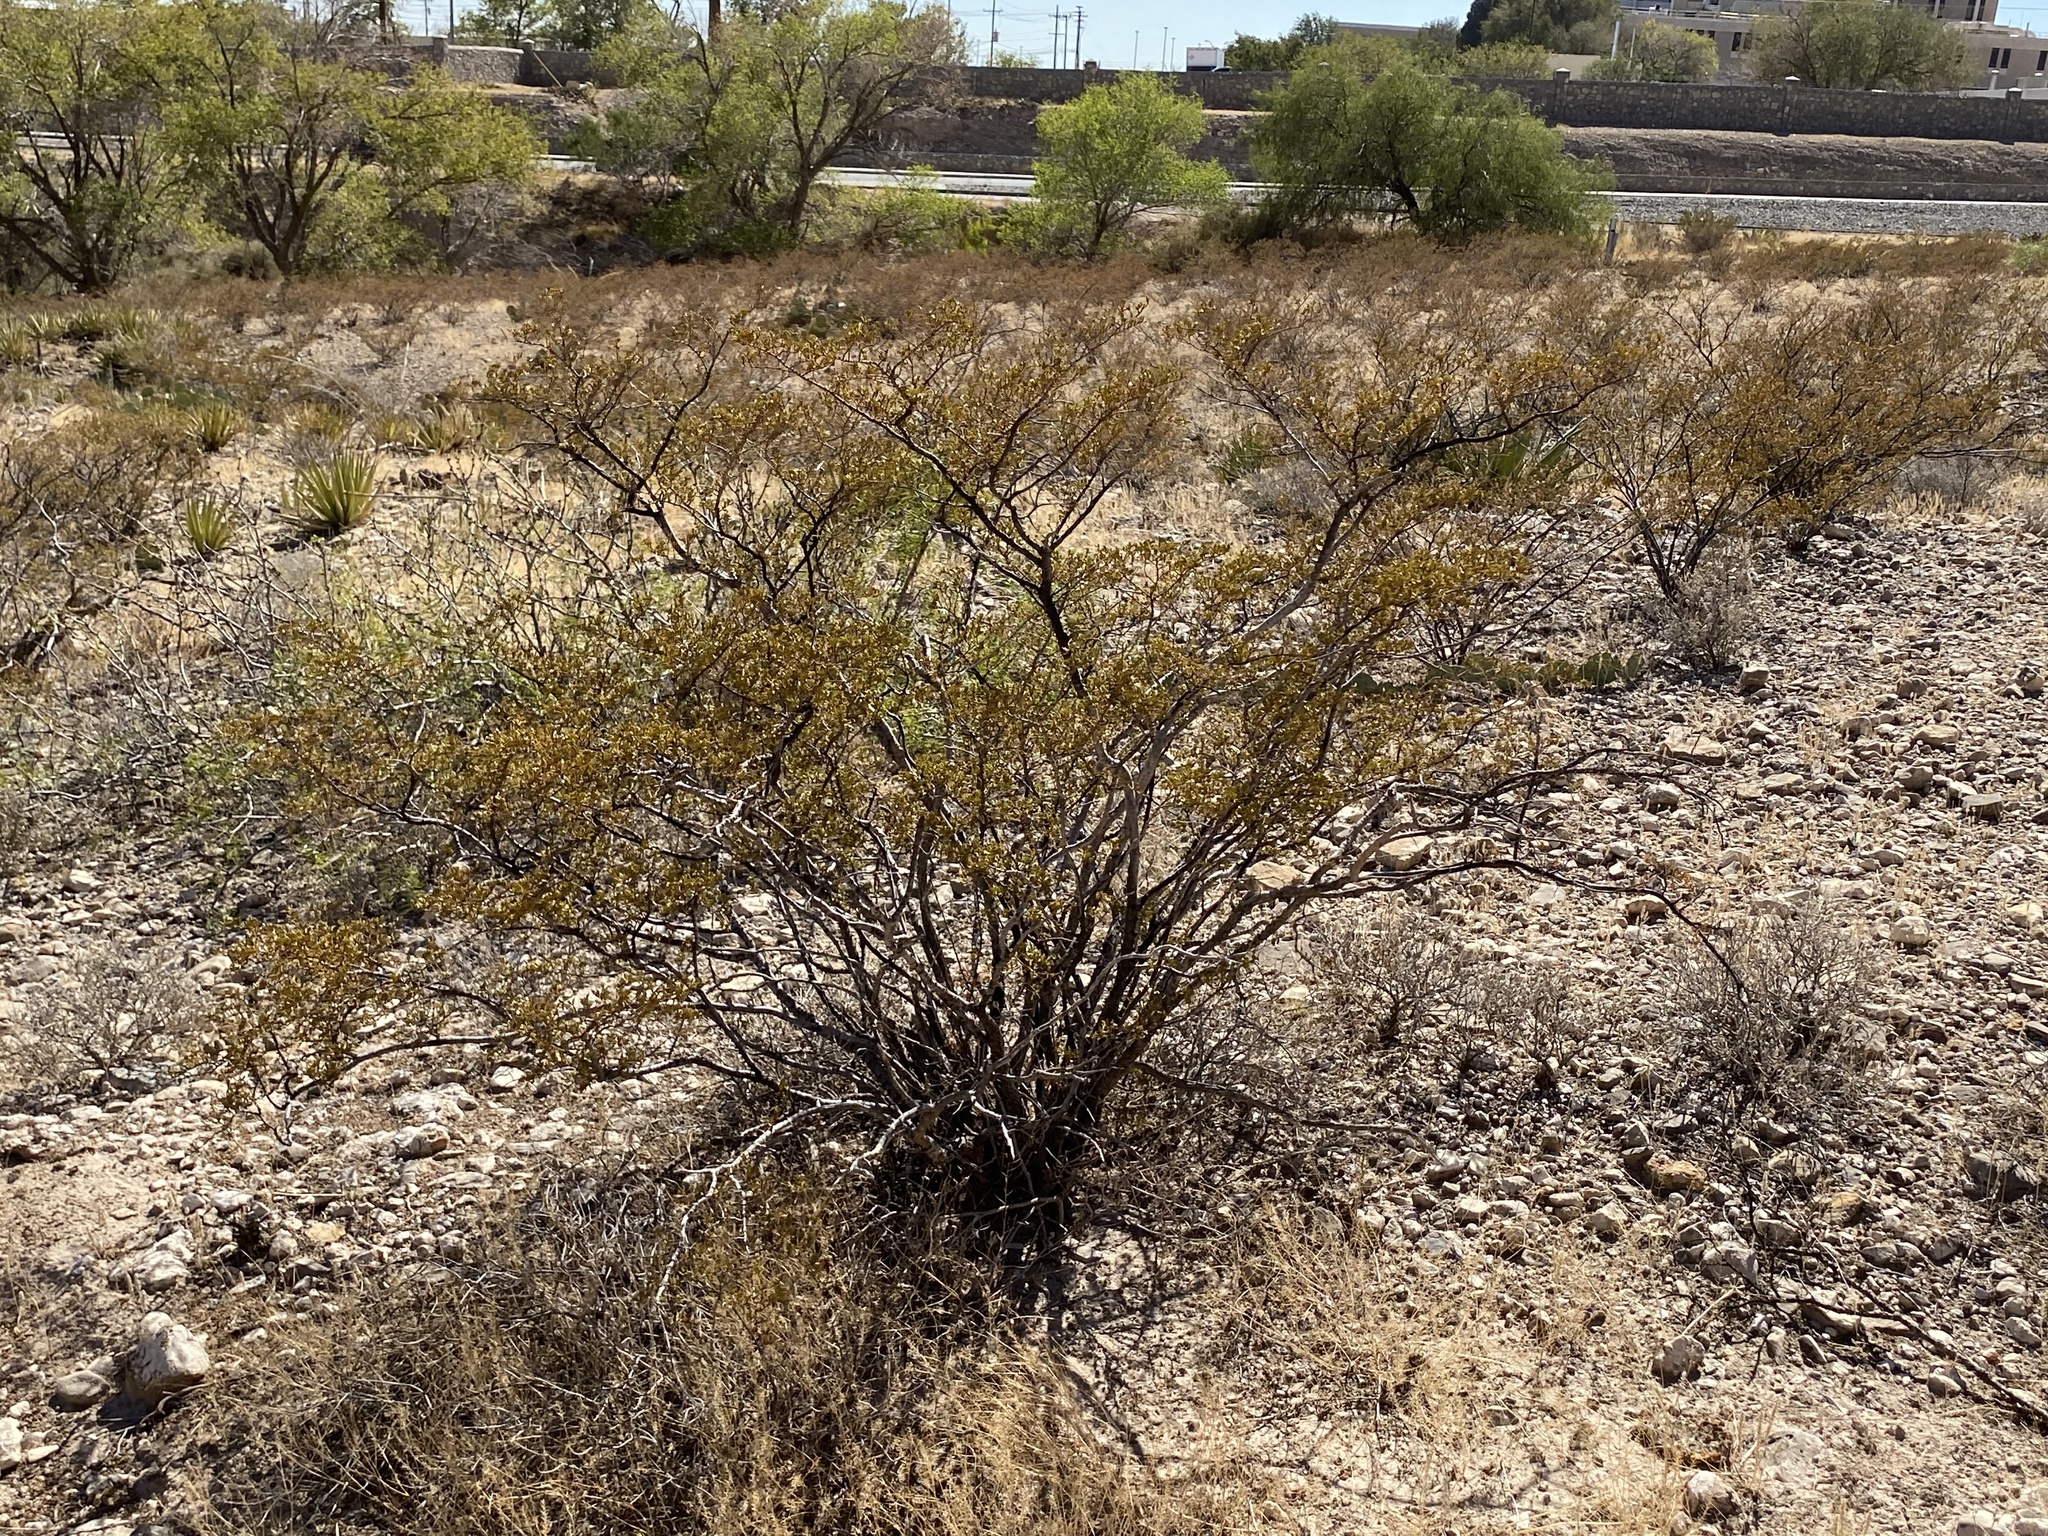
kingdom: Plantae
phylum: Tracheophyta
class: Magnoliopsida
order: Zygophyllales
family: Zygophyllaceae
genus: Larrea
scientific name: Larrea tridentata
